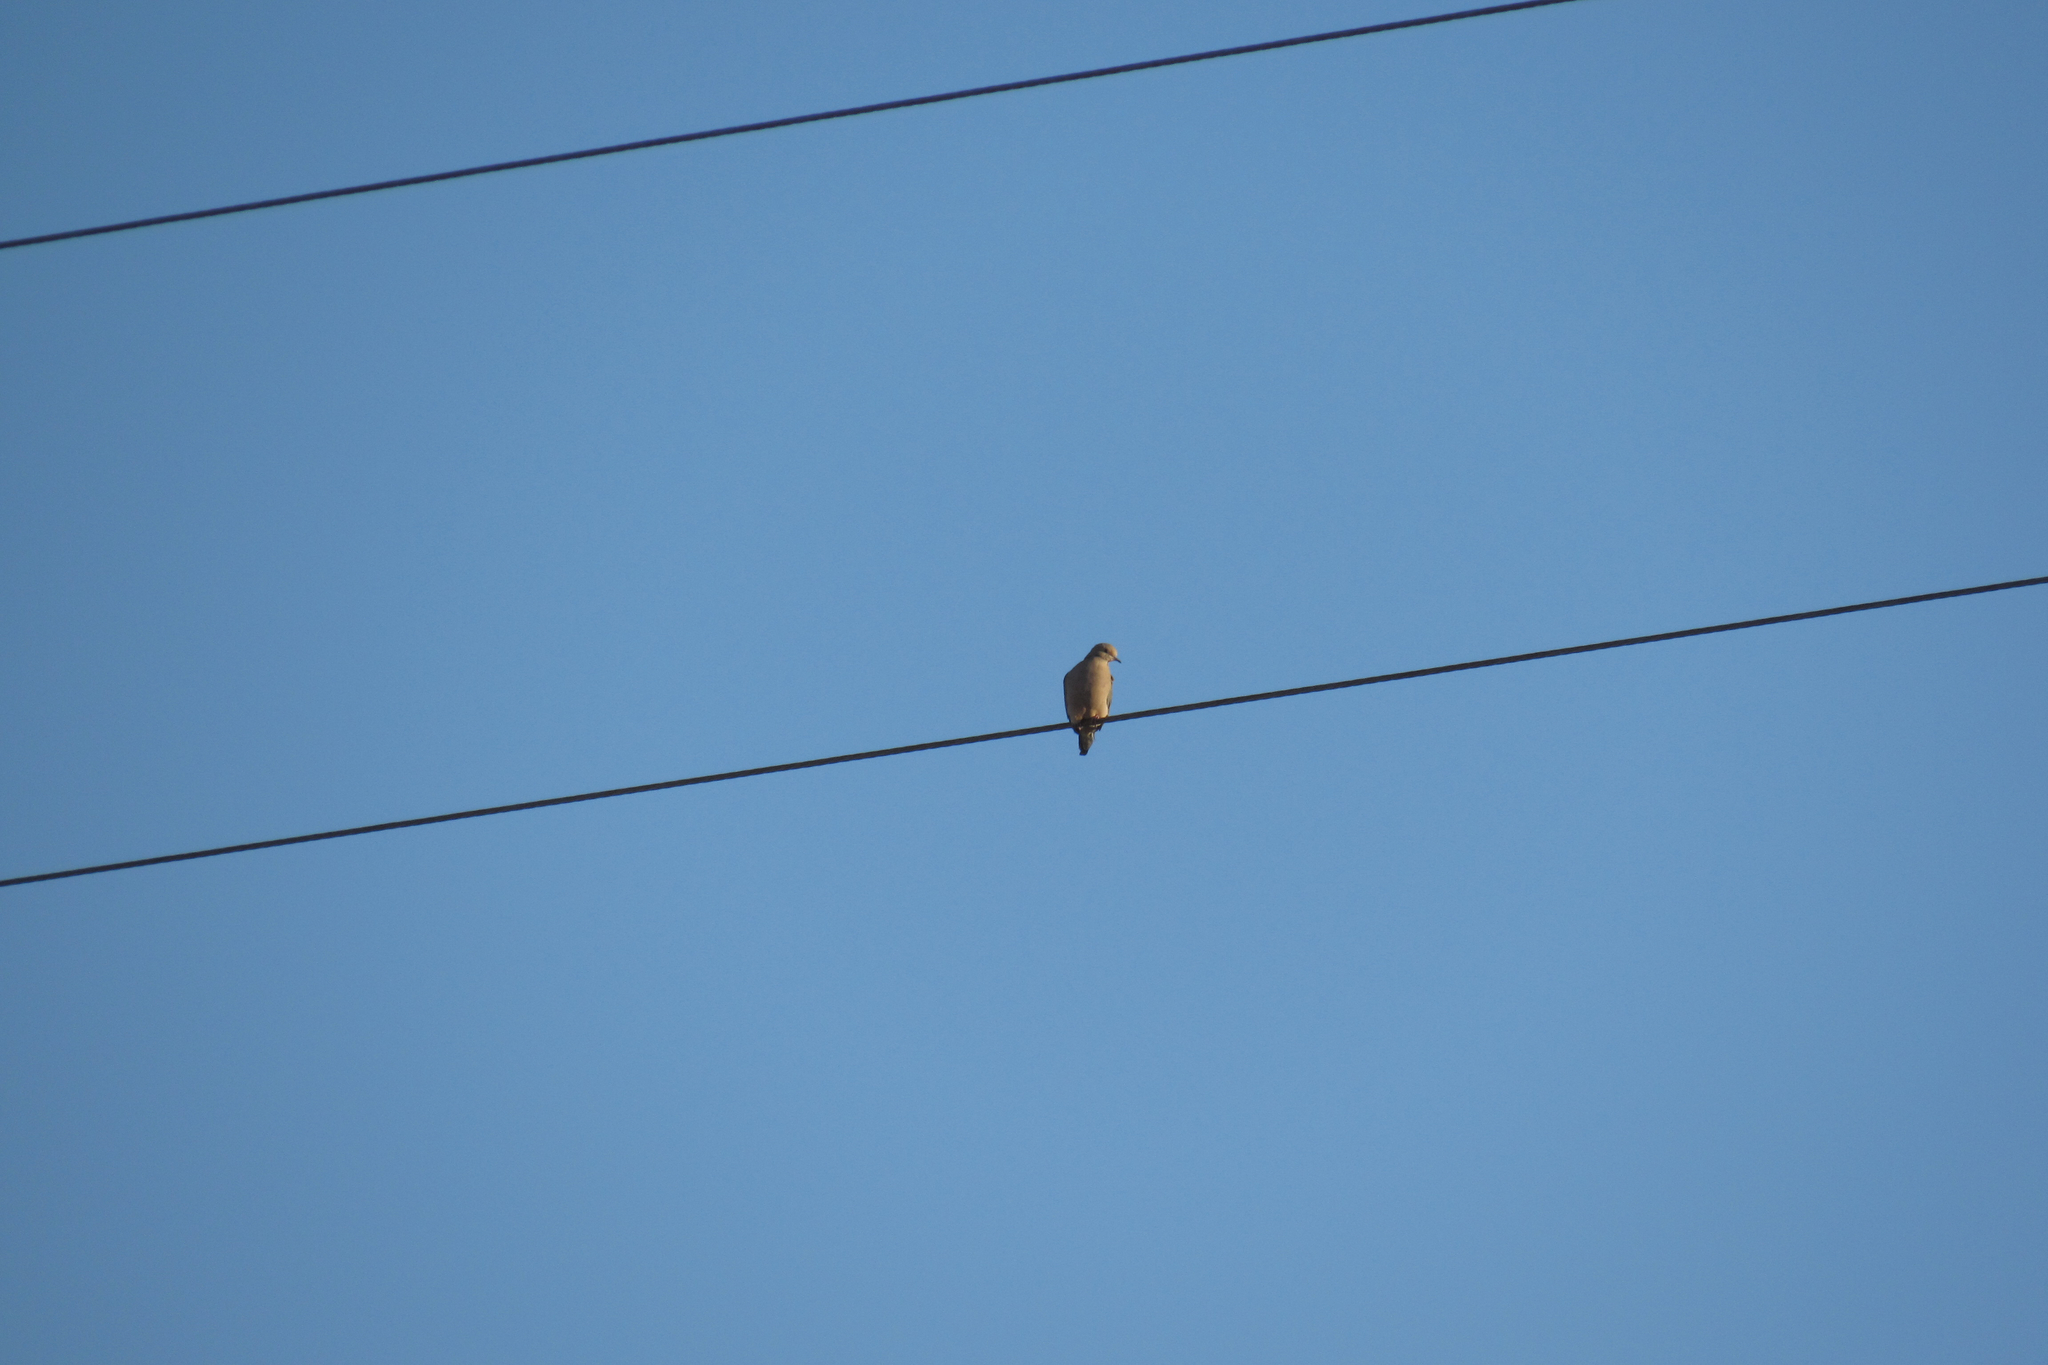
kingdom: Animalia
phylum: Chordata
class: Aves
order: Columbiformes
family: Columbidae
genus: Zenaida
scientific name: Zenaida macroura
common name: Mourning dove
